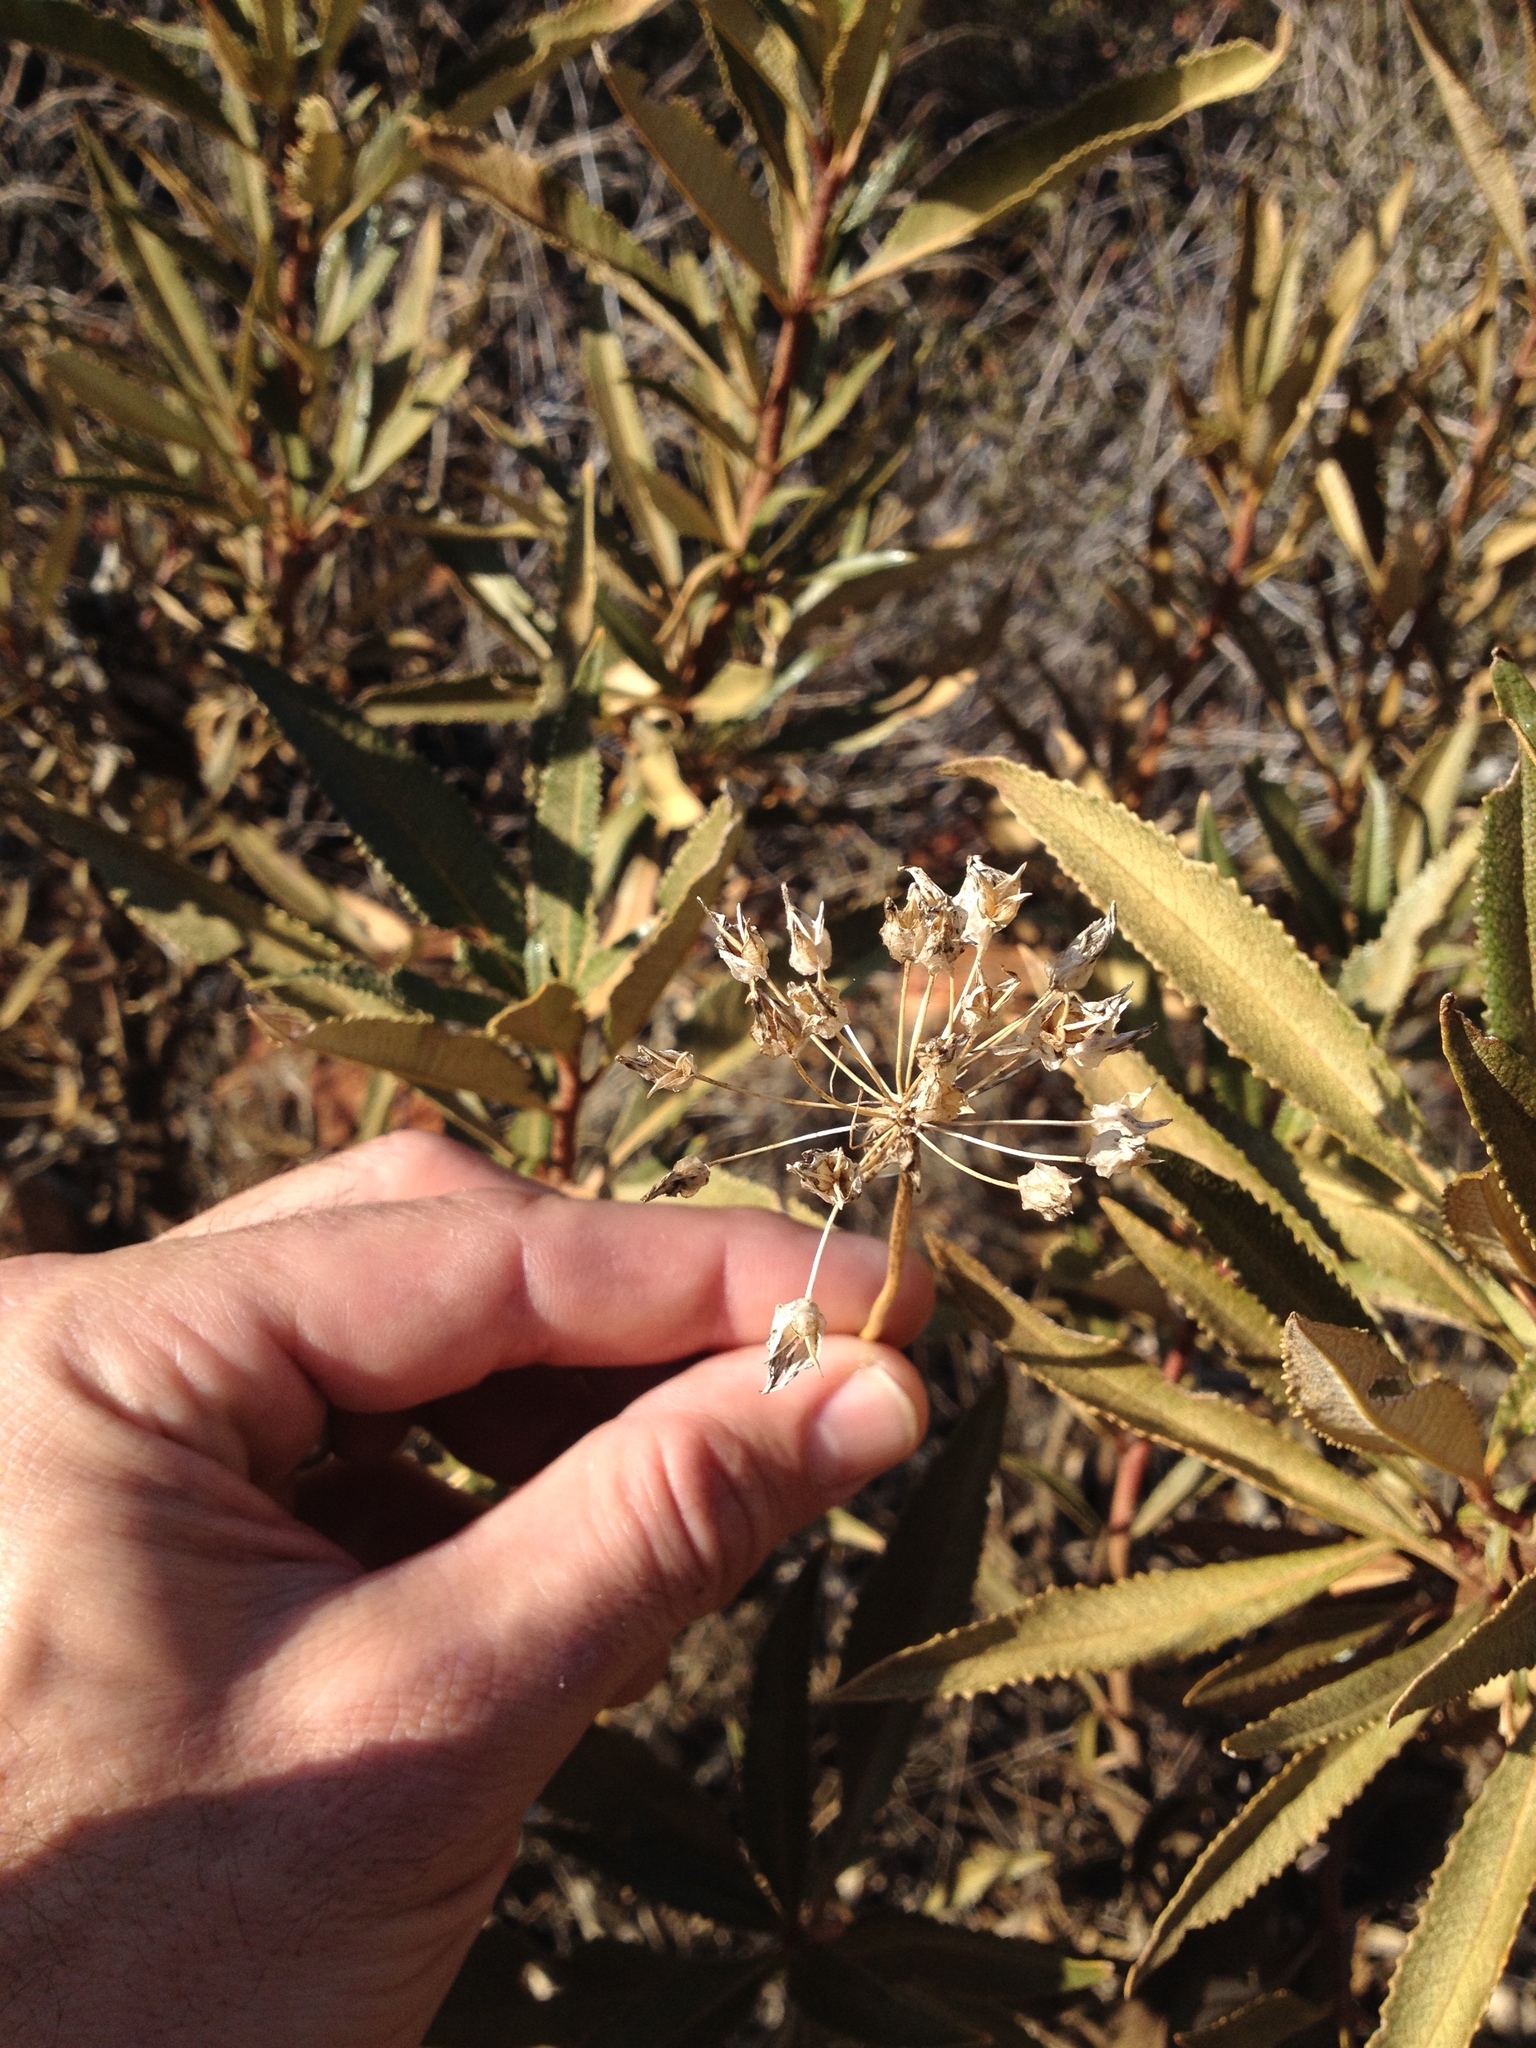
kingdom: Plantae
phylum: Tracheophyta
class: Magnoliopsida
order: Boraginales
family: Namaceae
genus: Eriodictyon
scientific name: Eriodictyon californicum
